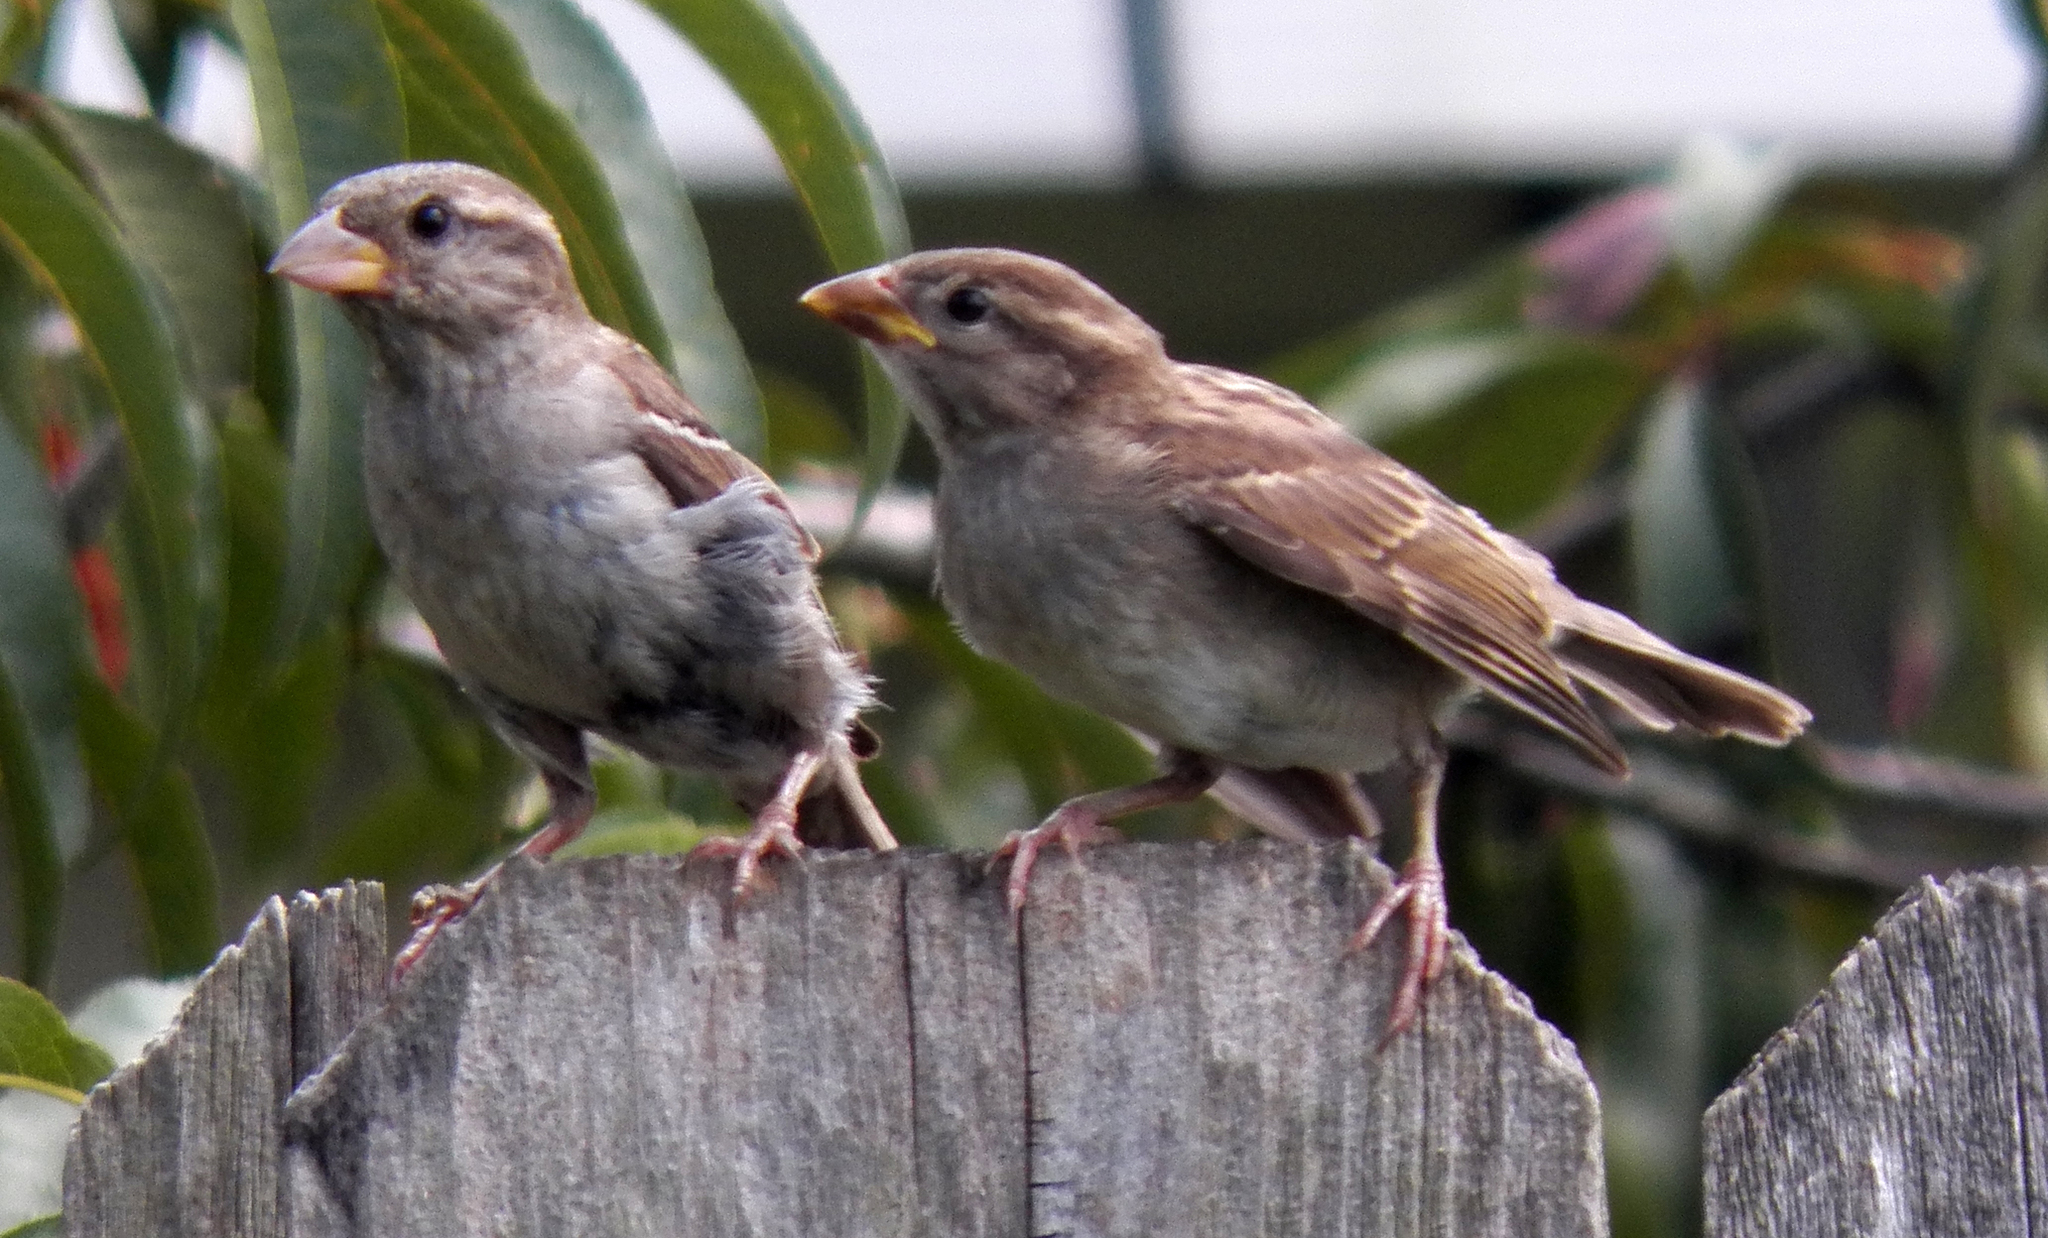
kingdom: Animalia
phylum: Chordata
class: Aves
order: Passeriformes
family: Passeridae
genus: Passer
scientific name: Passer domesticus
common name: House sparrow
